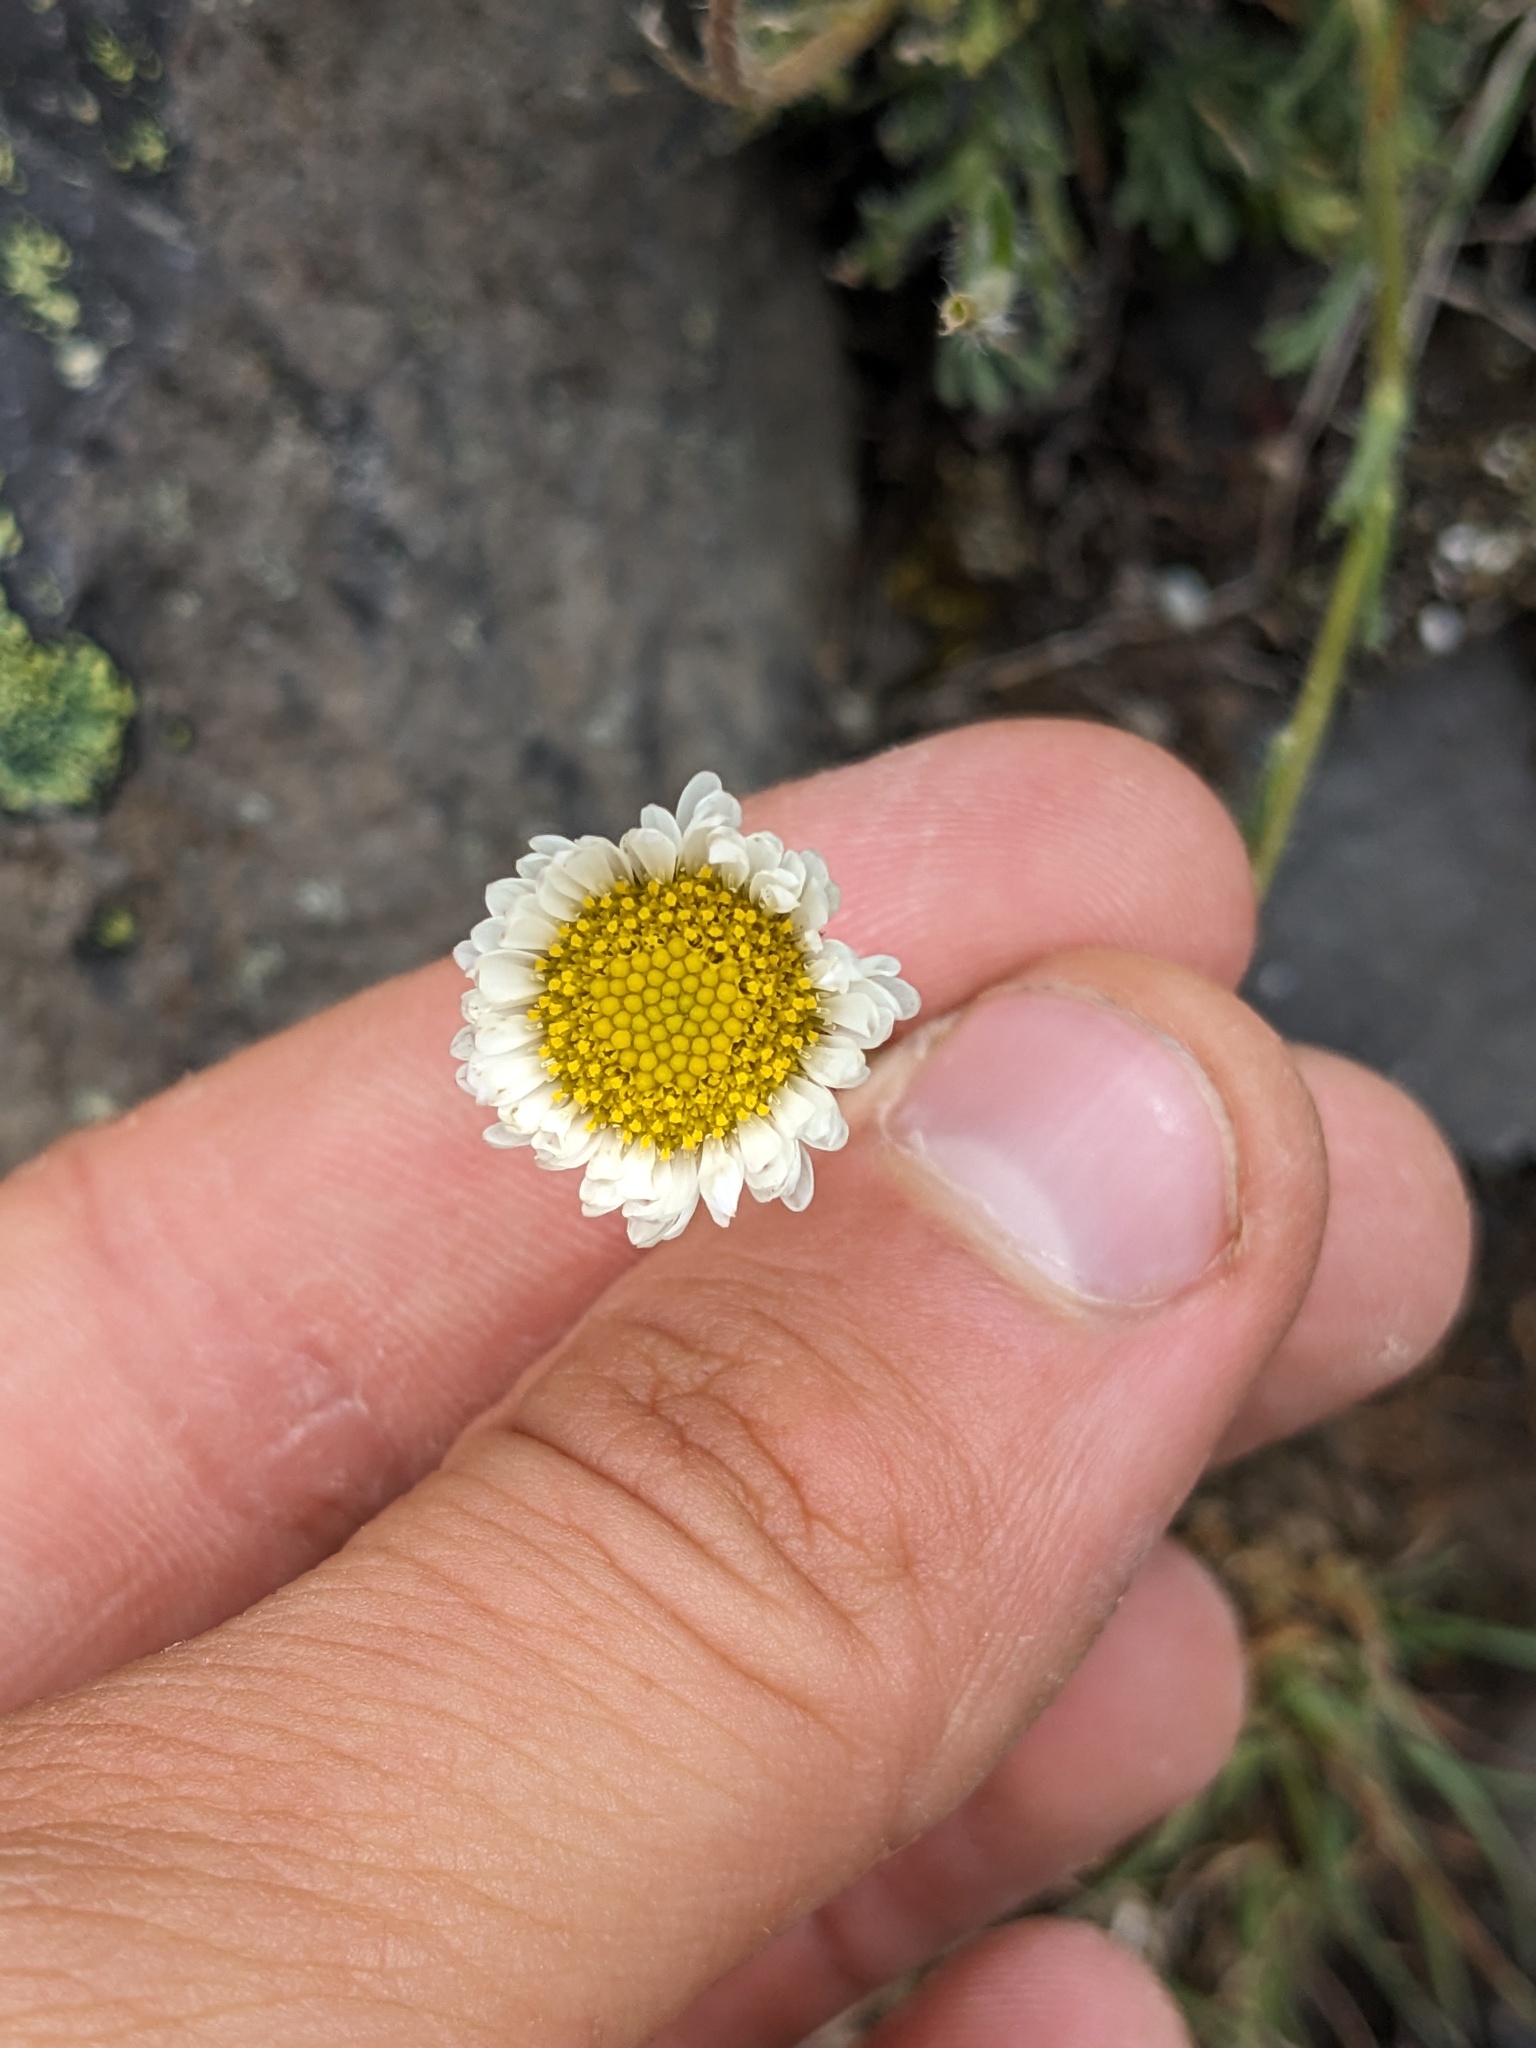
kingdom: Plantae
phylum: Tracheophyta
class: Magnoliopsida
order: Asterales
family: Asteraceae
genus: Erigeron
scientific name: Erigeron compositus
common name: Dwarf mountain fleabane
